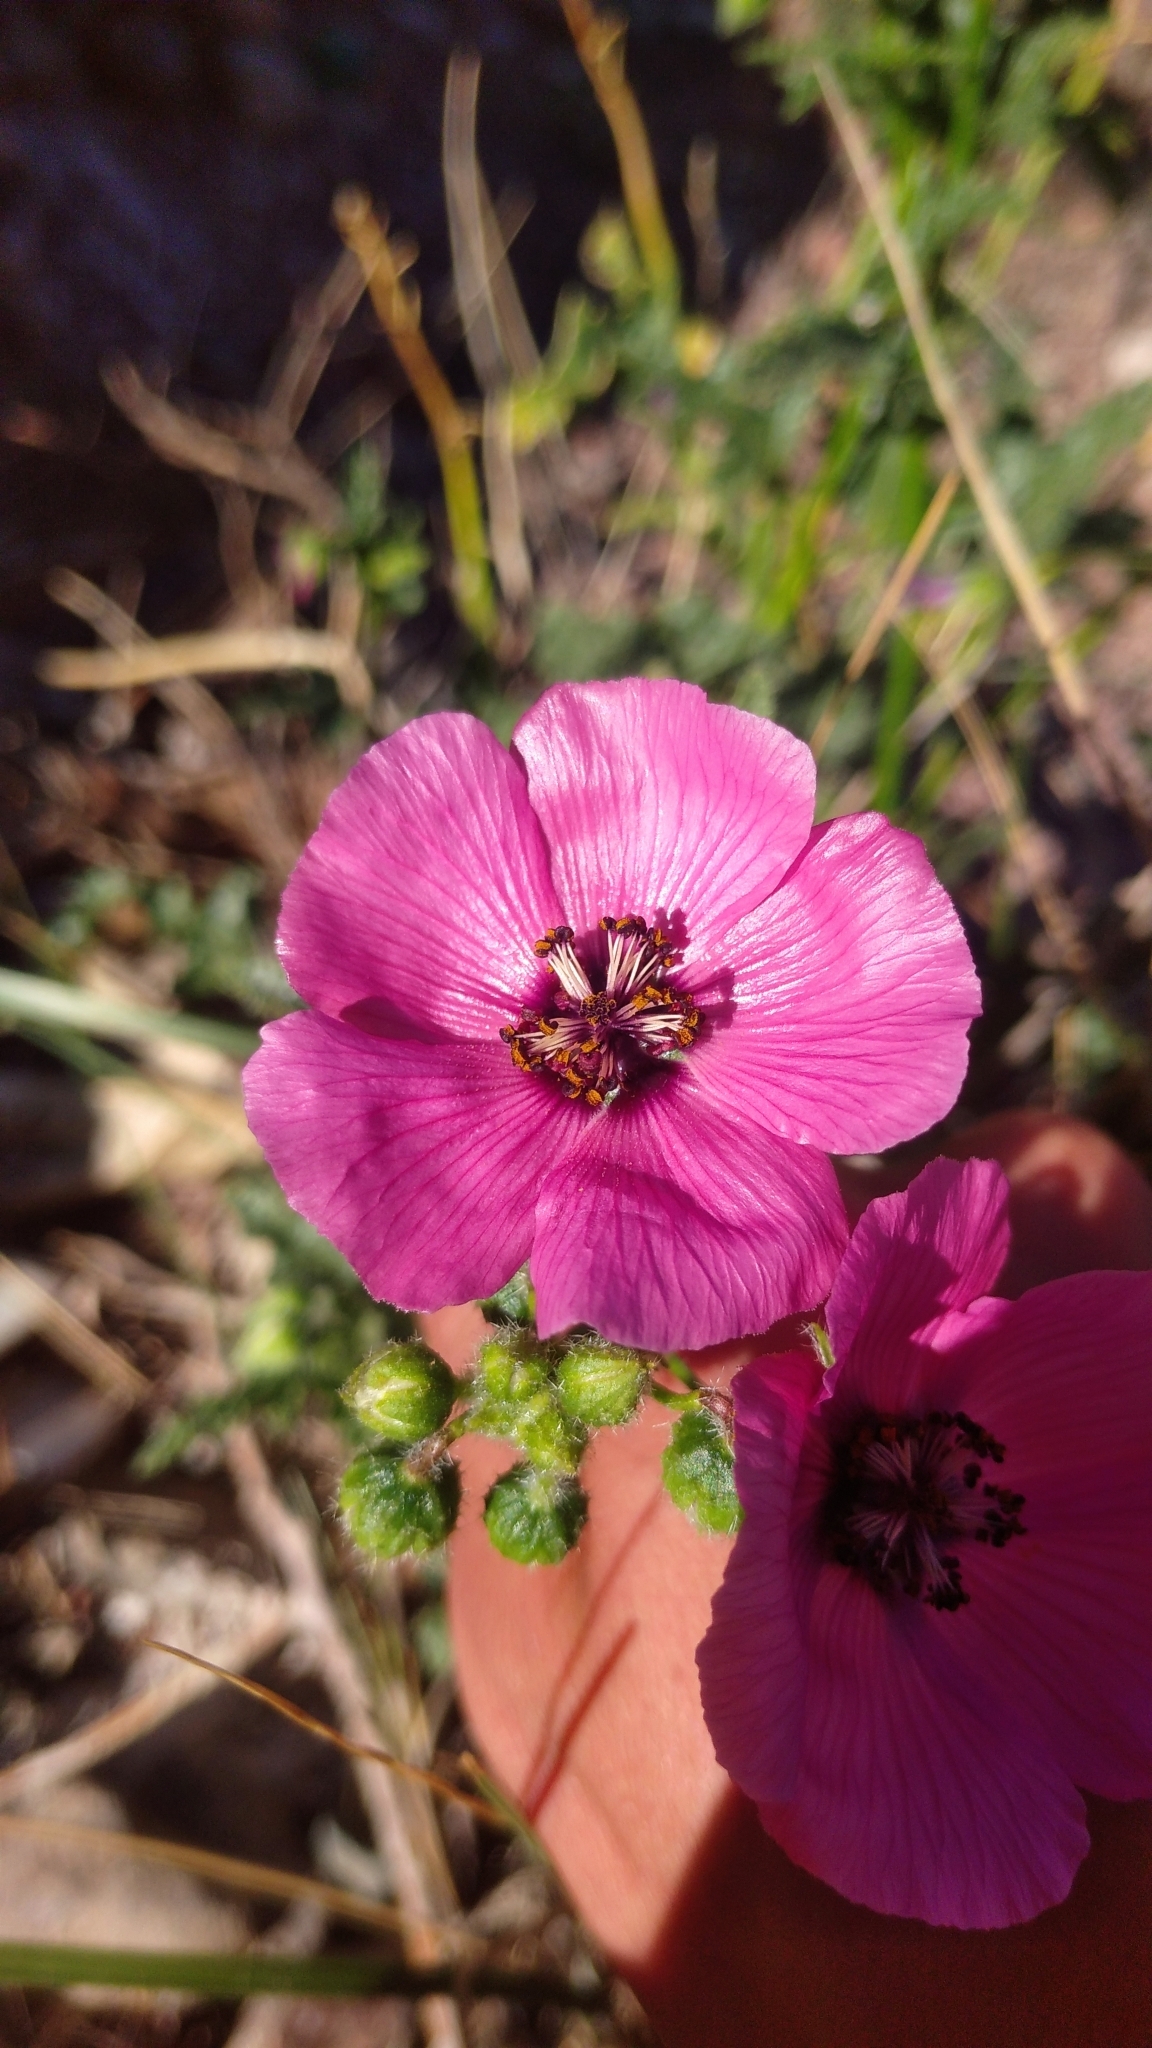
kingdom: Plantae
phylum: Tracheophyta
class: Magnoliopsida
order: Malvales
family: Malvaceae
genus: Lecanophora
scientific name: Lecanophora heterophylla
